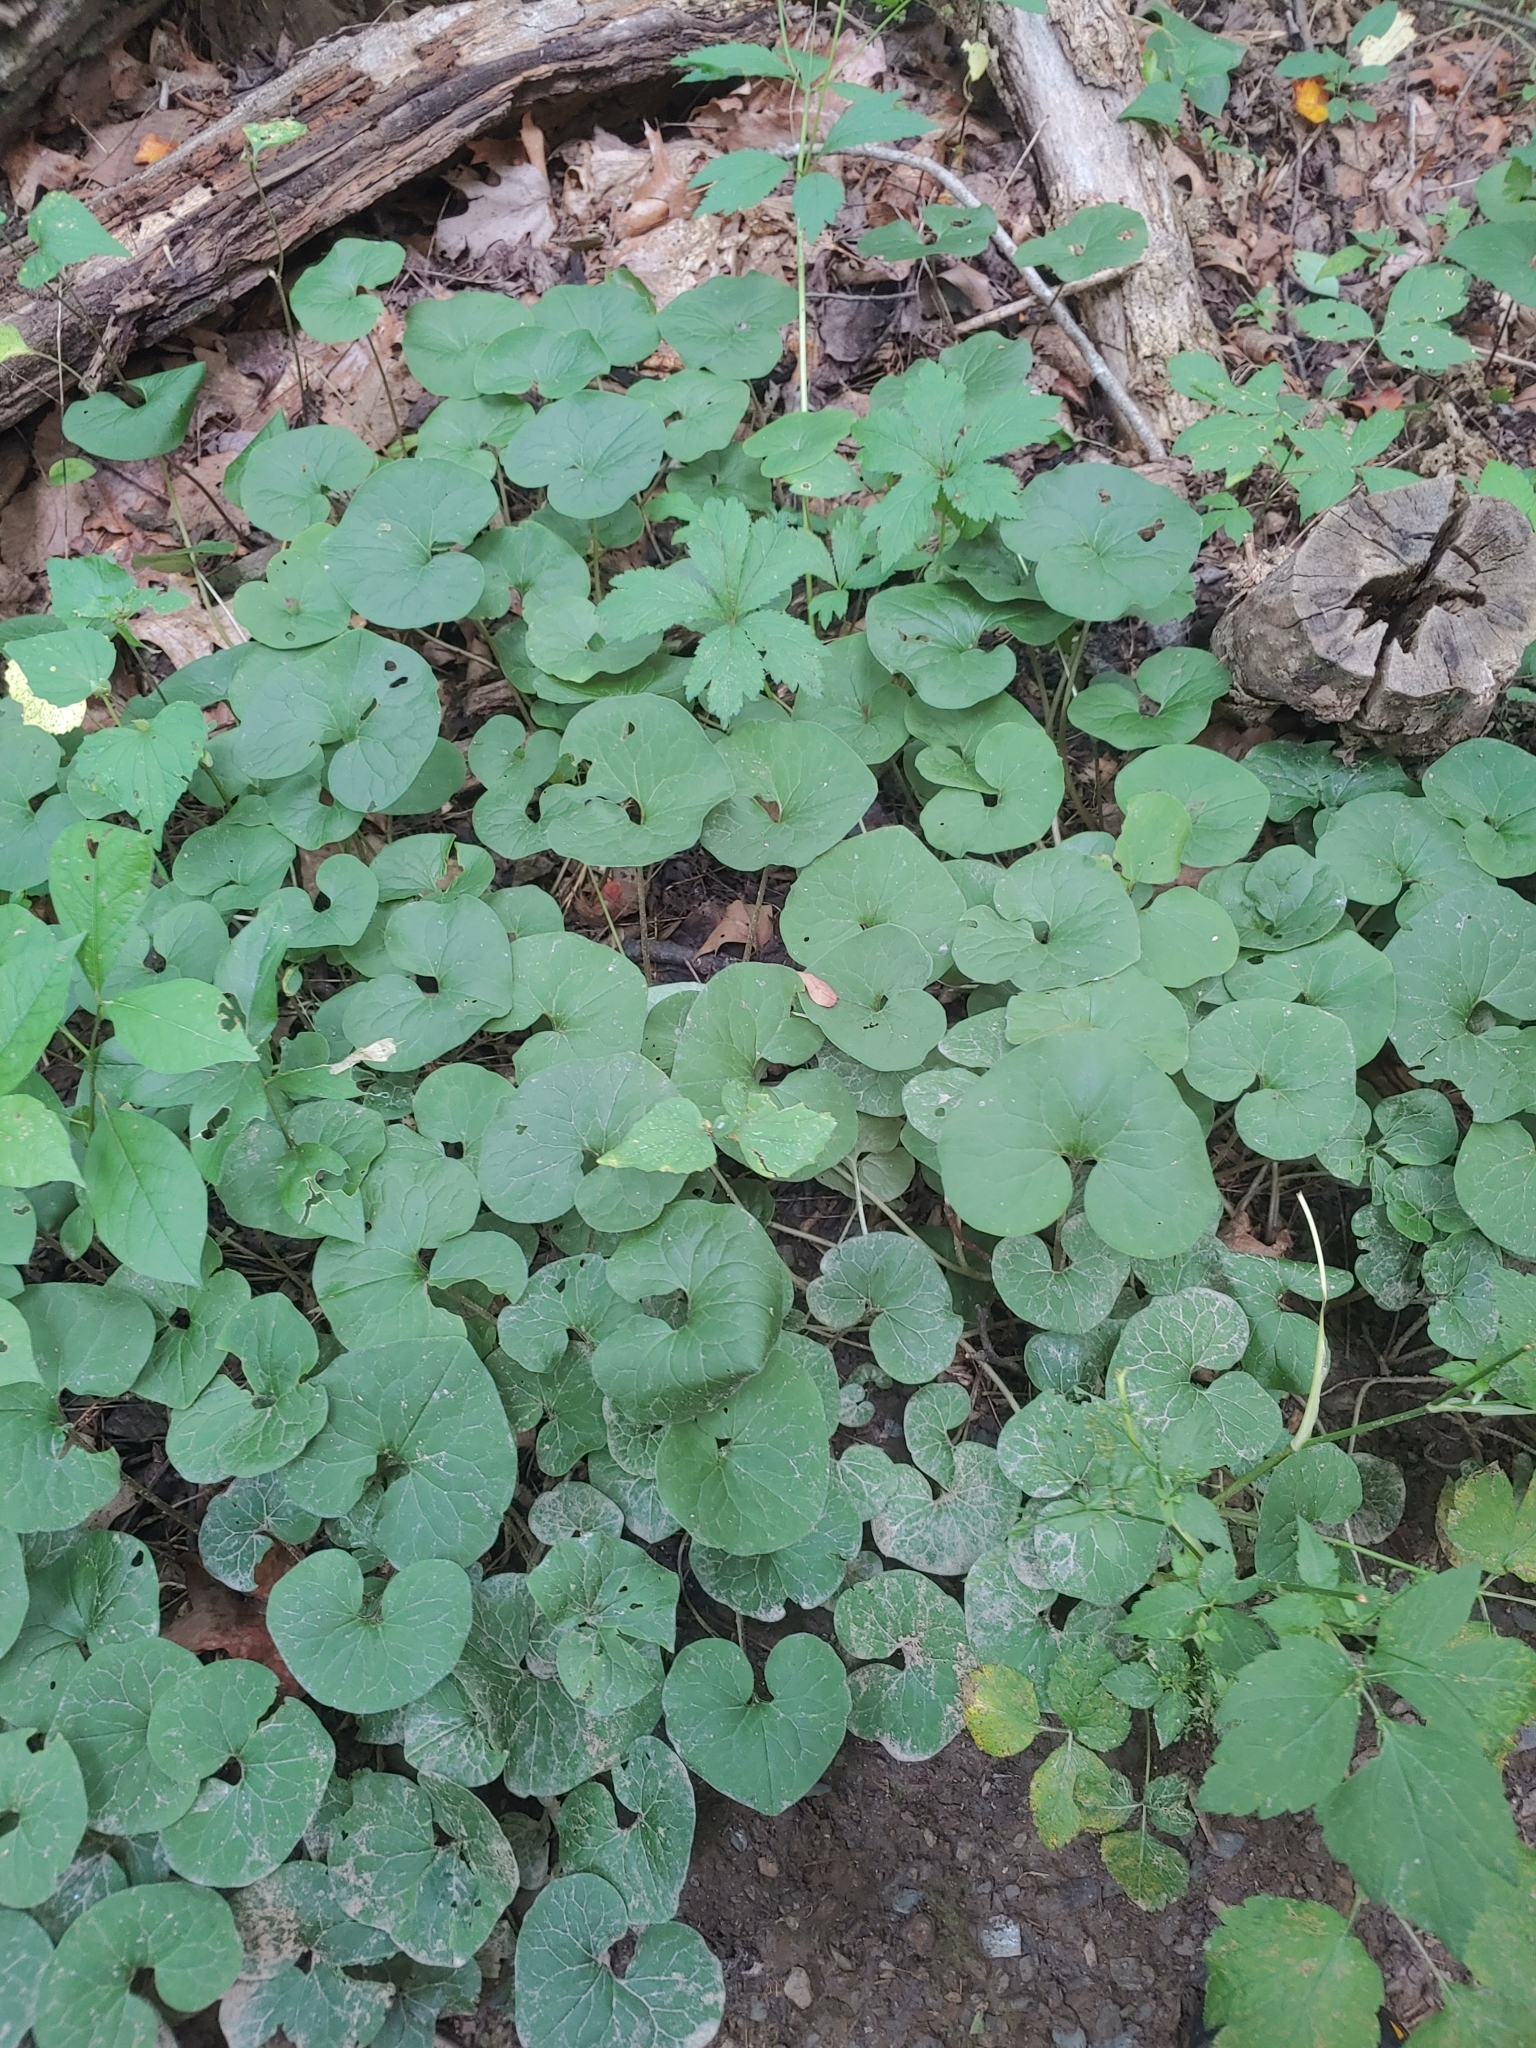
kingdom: Plantae
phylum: Tracheophyta
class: Magnoliopsida
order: Piperales
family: Aristolochiaceae
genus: Asarum
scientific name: Asarum canadense
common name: Wild ginger
